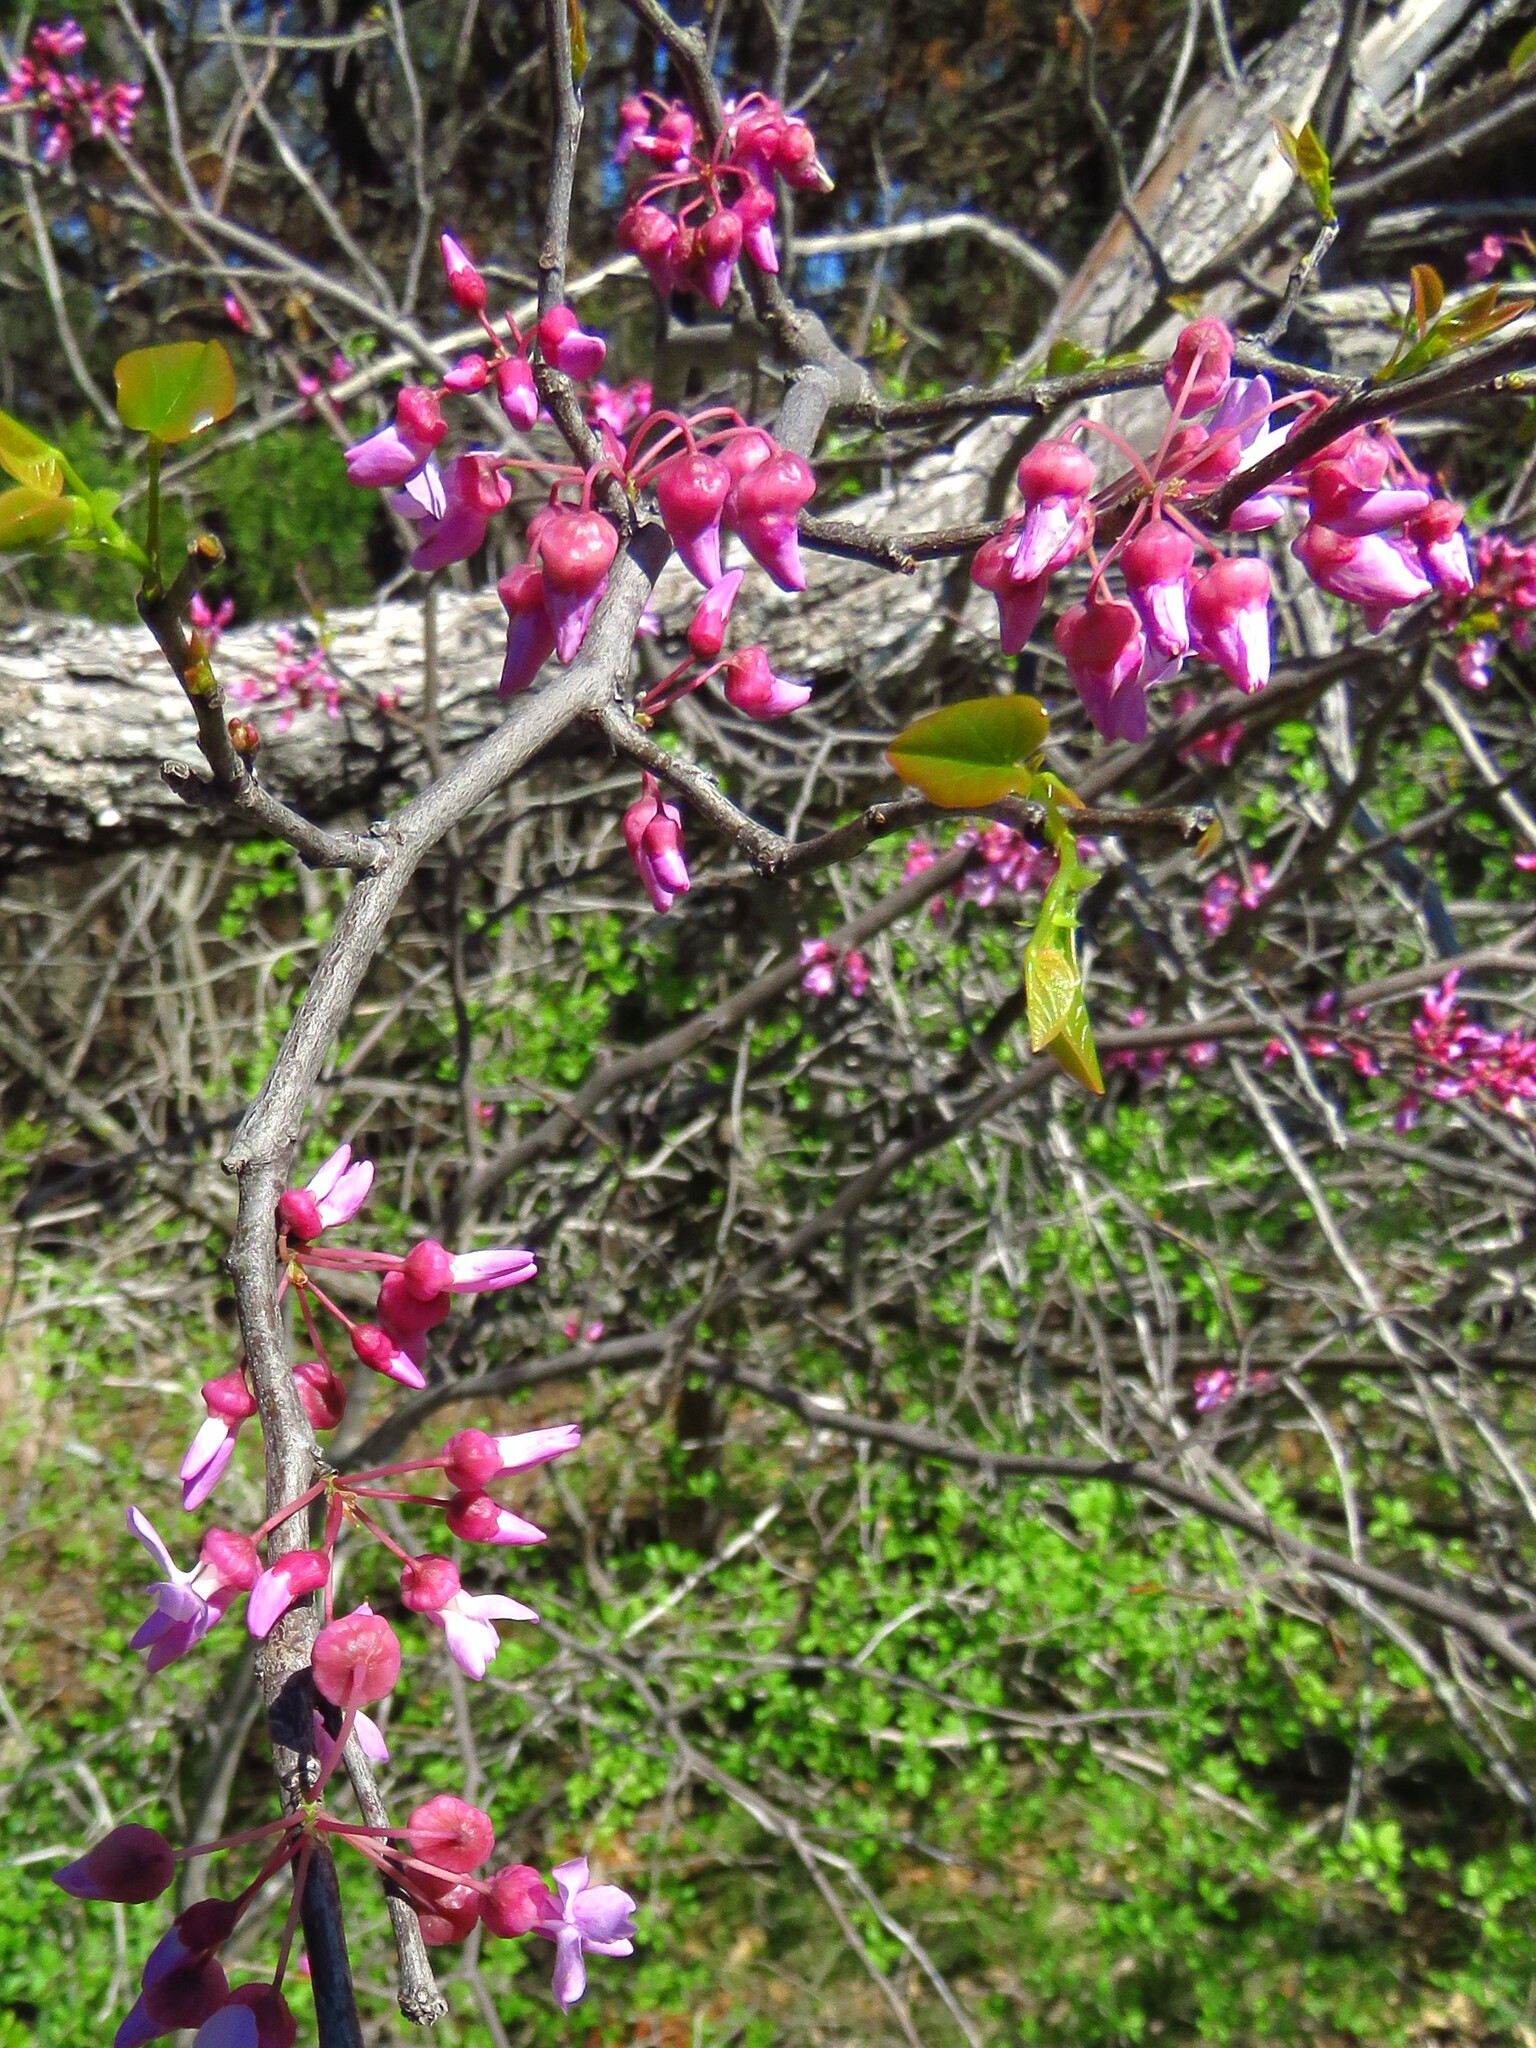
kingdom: Plantae
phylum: Tracheophyta
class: Magnoliopsida
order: Fabales
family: Fabaceae
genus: Cercis
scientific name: Cercis canadensis
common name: Eastern redbud
